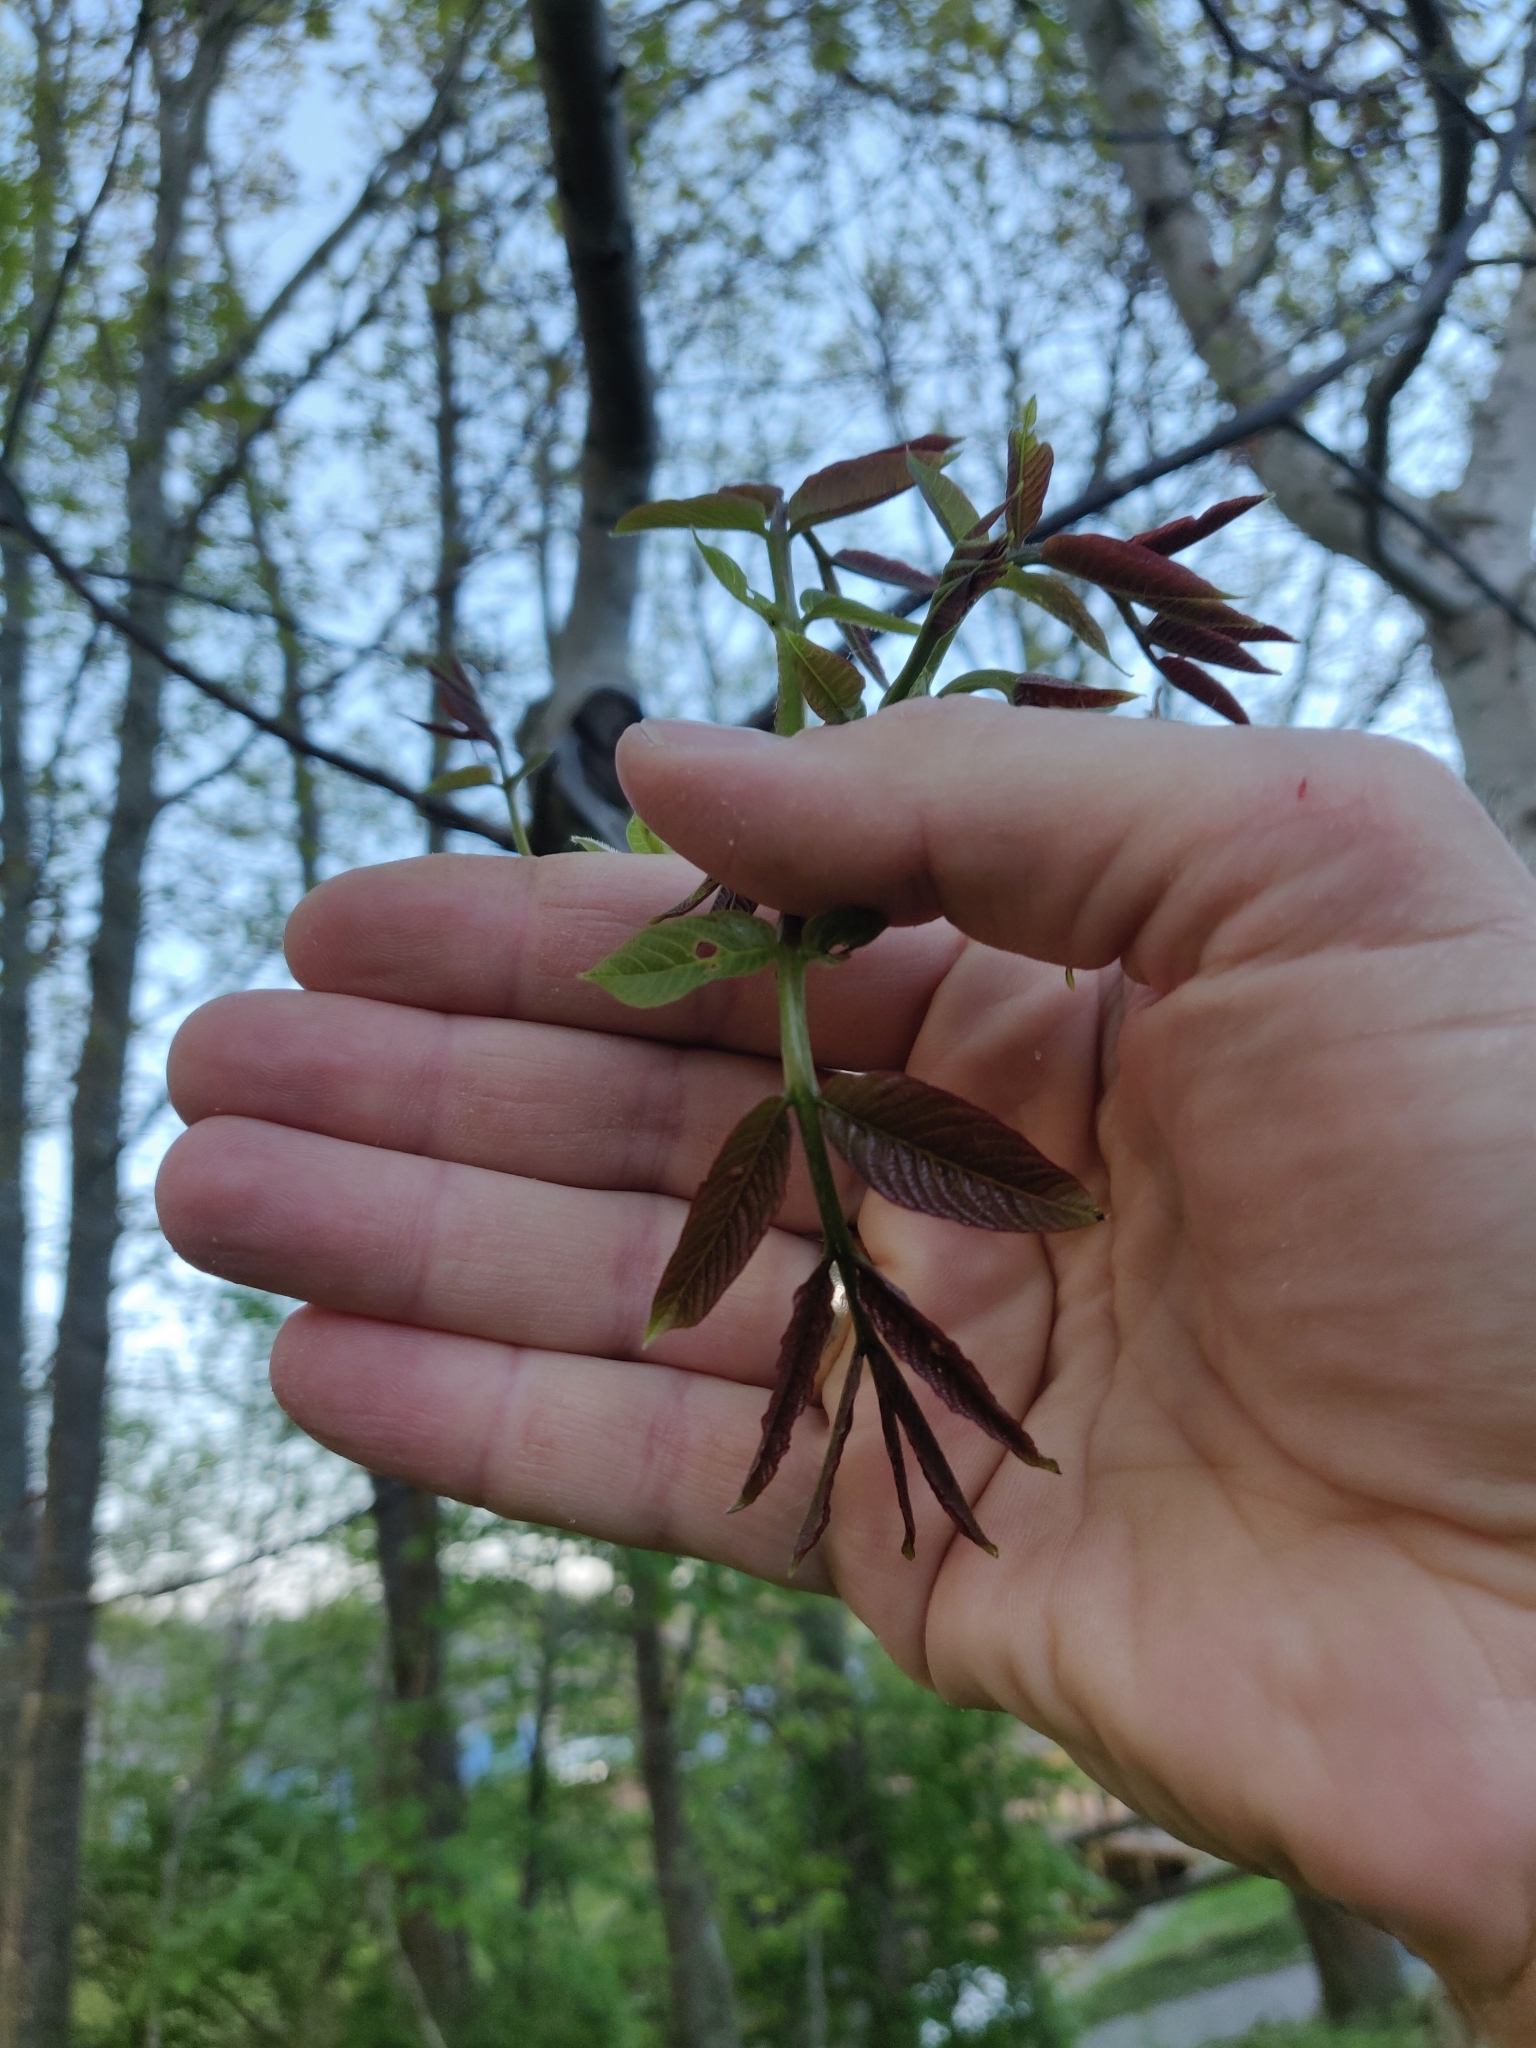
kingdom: Plantae
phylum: Tracheophyta
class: Magnoliopsida
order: Fagales
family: Juglandaceae
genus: Juglans
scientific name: Juglans regia
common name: Walnut
